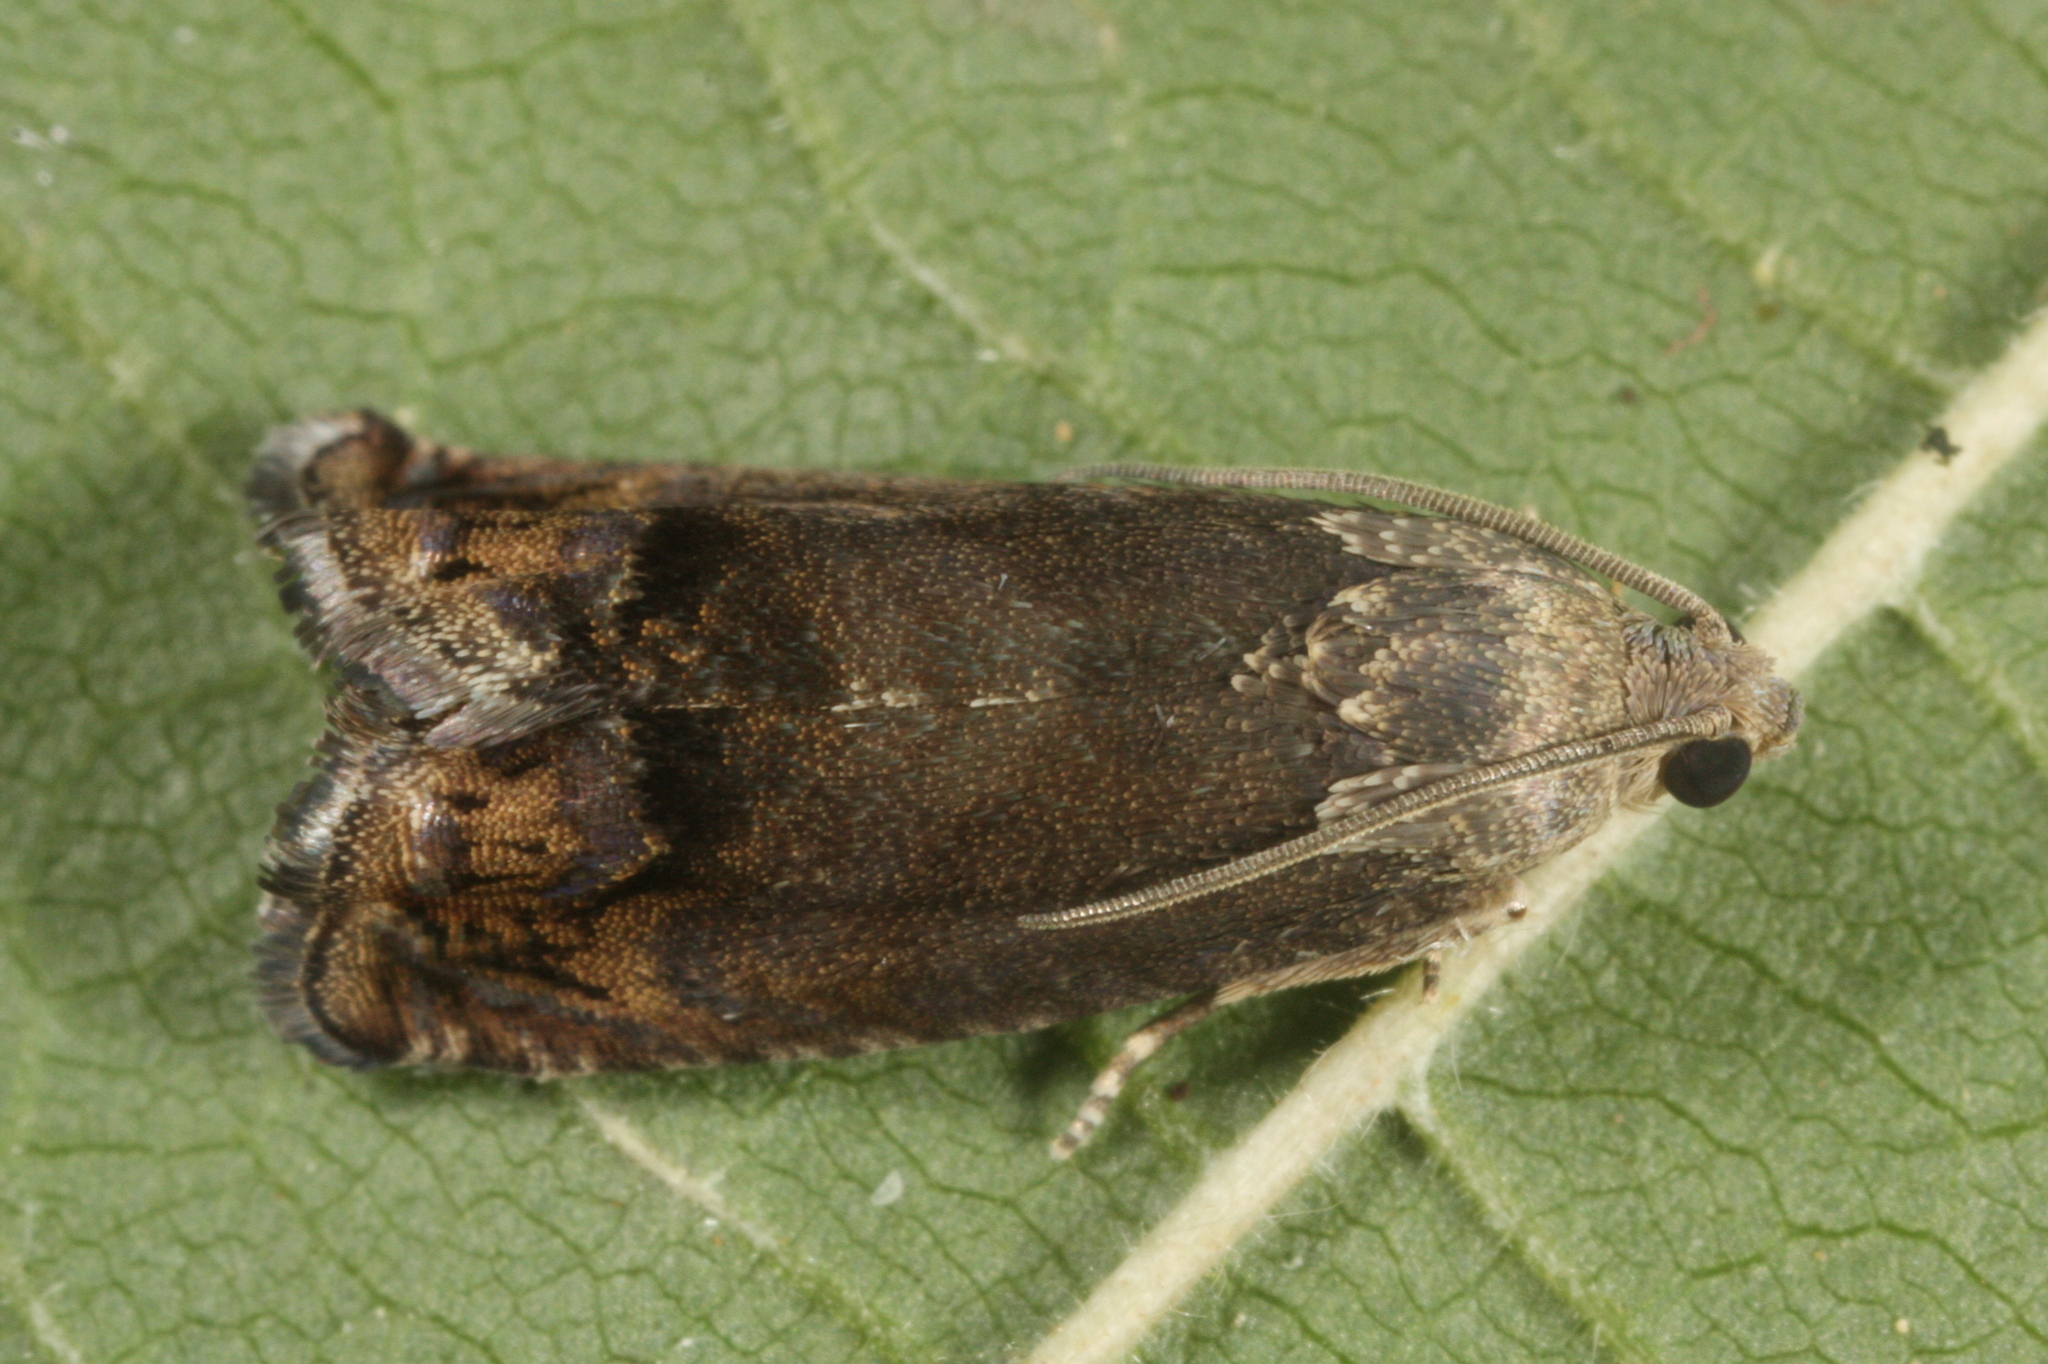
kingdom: Animalia
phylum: Arthropoda
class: Insecta
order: Lepidoptera
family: Tortricidae
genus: Cydia
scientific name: Cydia splendana
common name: De: kastanienwickler, eichenwickler es: oruga de la castaña fr: carpocapse des châtaignes it: cidia o tortrice tardiva delle castagne pt: bichado das castanhas gb: acorn moth, chestnut fruit tortrix
